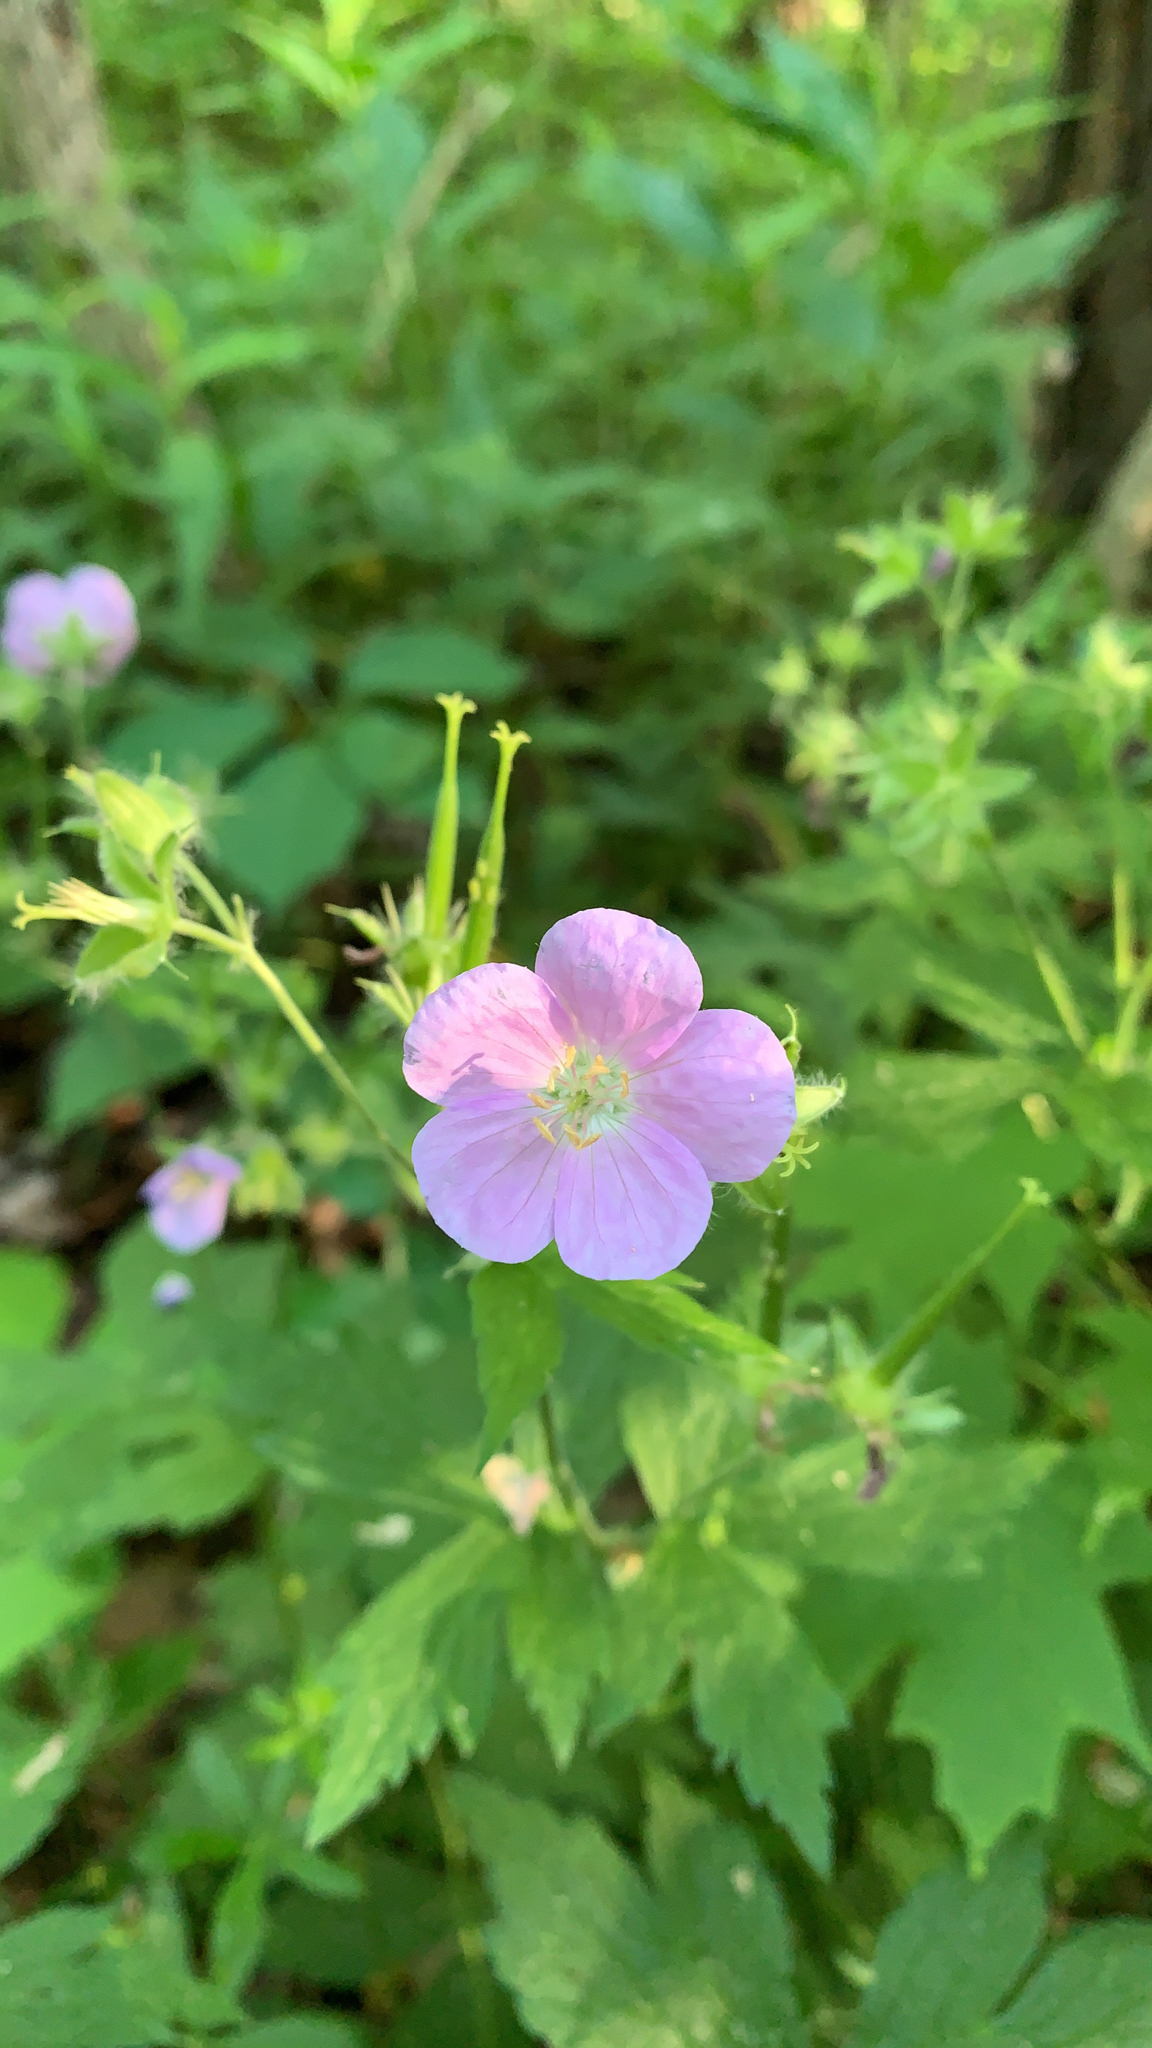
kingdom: Plantae
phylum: Tracheophyta
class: Magnoliopsida
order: Geraniales
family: Geraniaceae
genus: Geranium
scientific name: Geranium maculatum
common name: Spotted geranium
